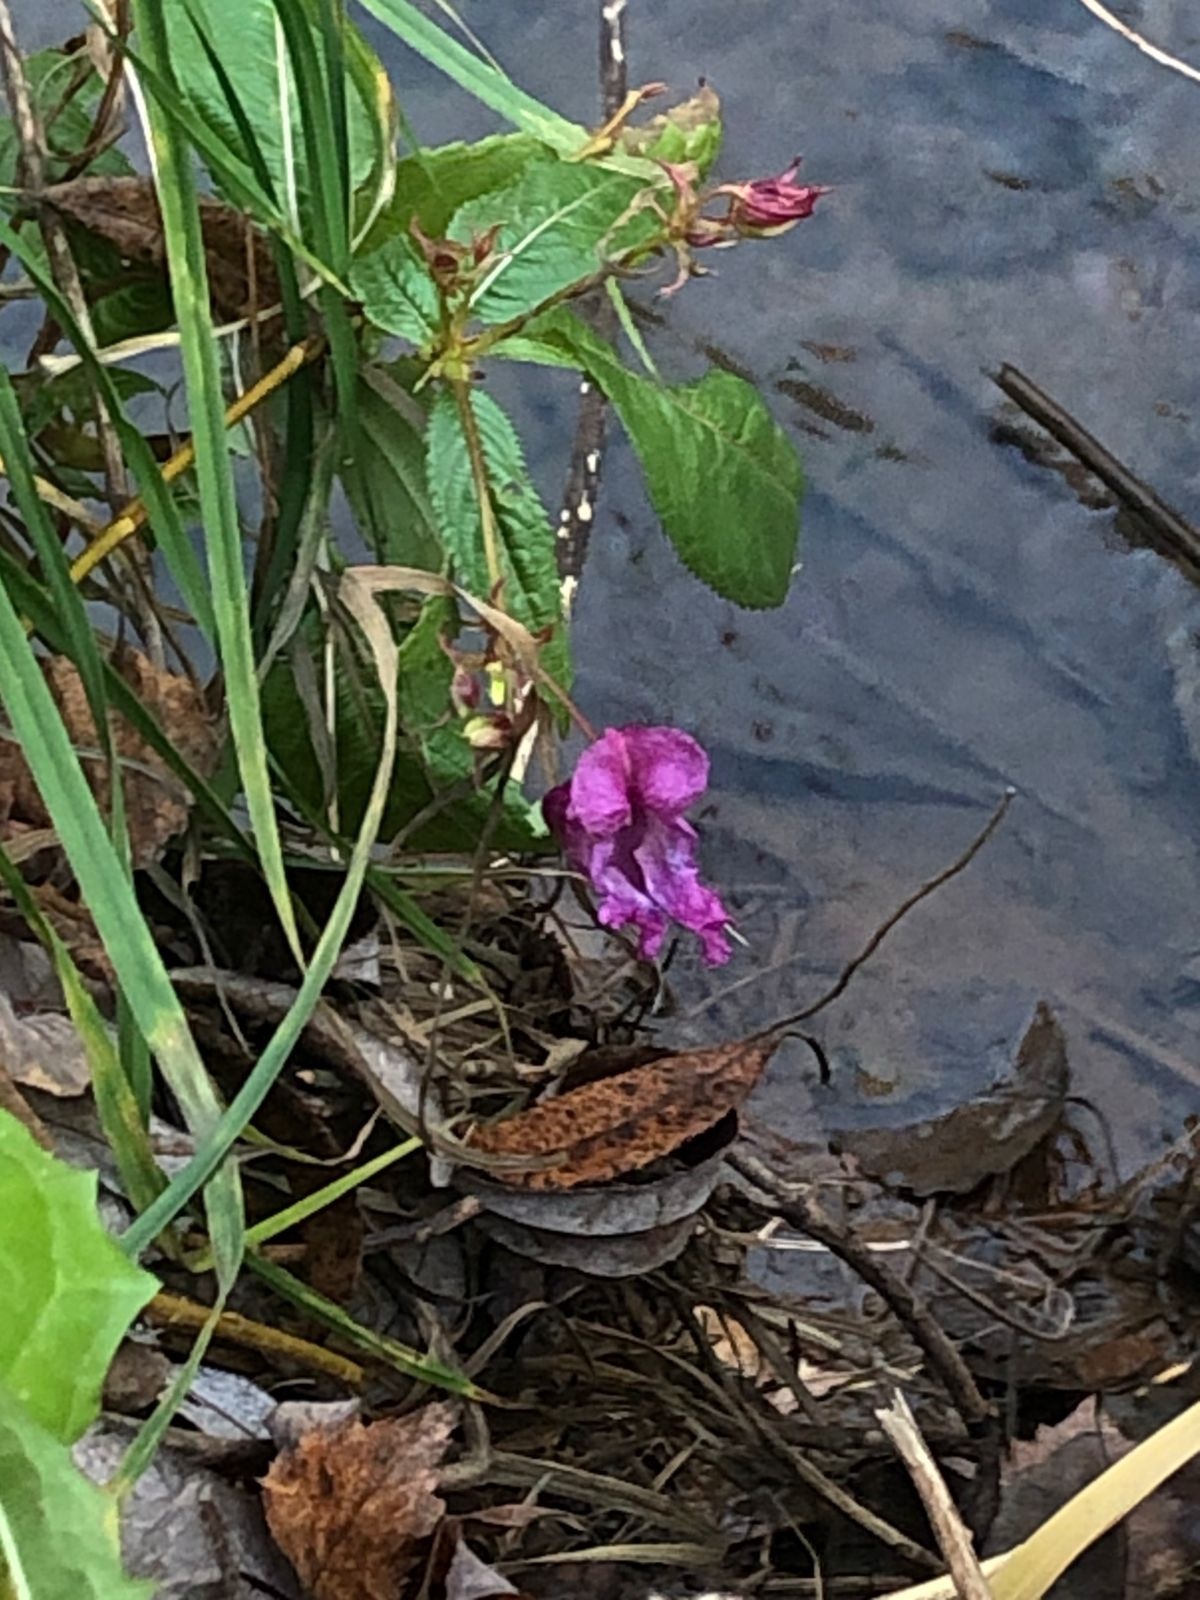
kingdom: Plantae
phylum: Tracheophyta
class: Magnoliopsida
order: Ericales
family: Balsaminaceae
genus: Impatiens
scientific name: Impatiens glandulifera
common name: Himalayan balsam
